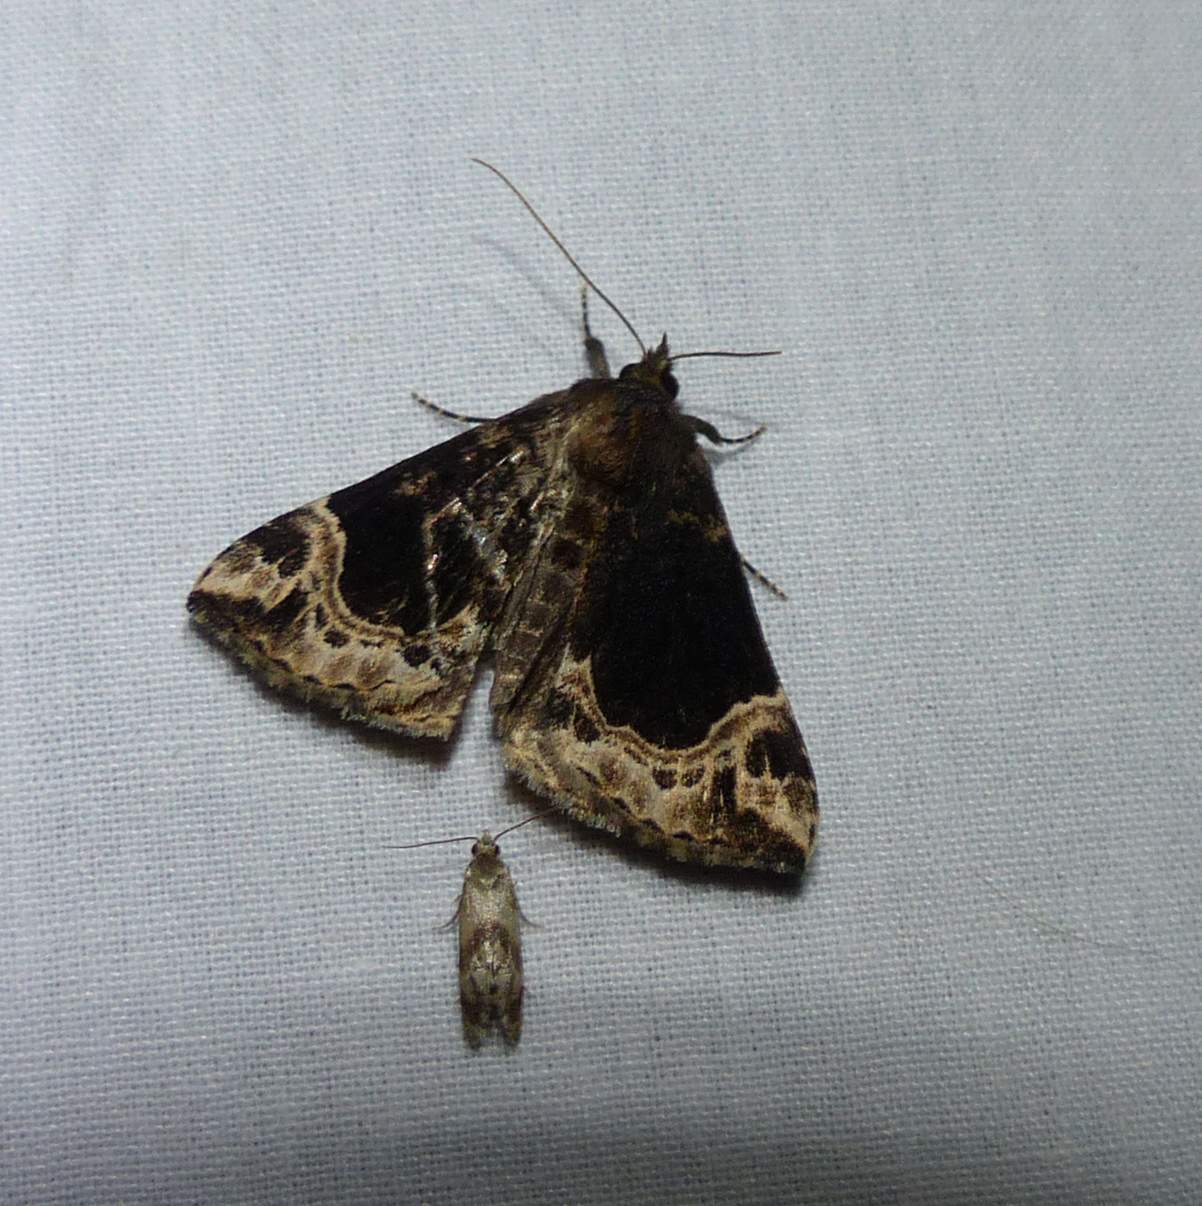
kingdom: Animalia
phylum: Arthropoda
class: Insecta
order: Lepidoptera
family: Erebidae
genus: Hypena
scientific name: Hypena abalienalis
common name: White-lined snout
